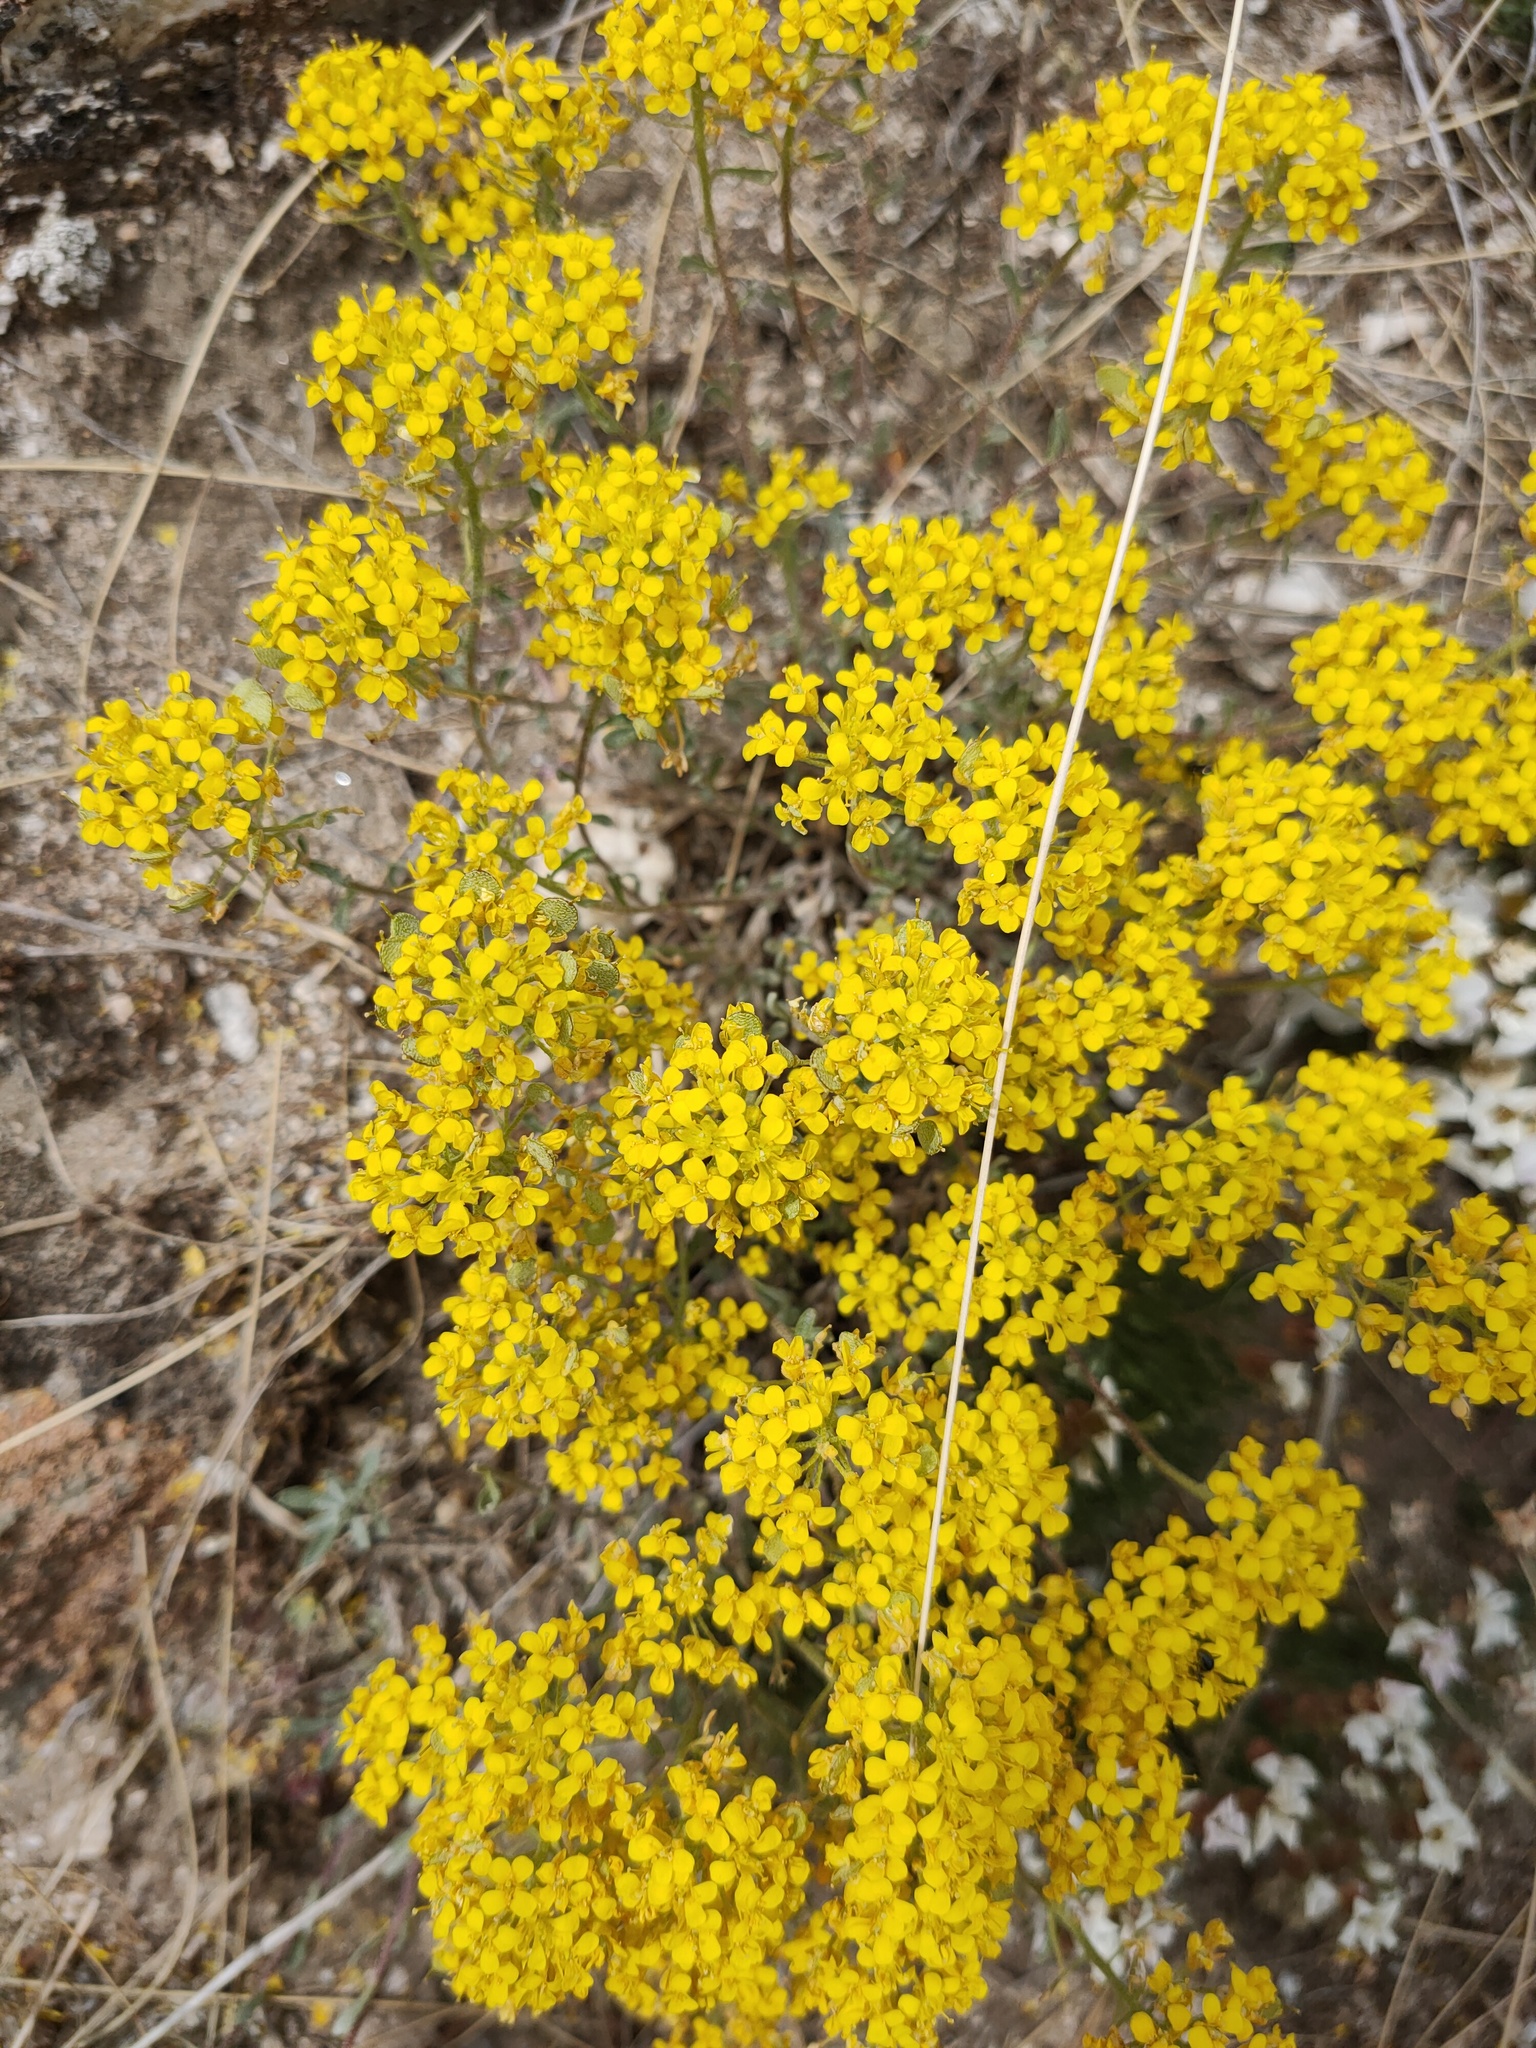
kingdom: Plantae
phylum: Tracheophyta
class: Magnoliopsida
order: Brassicales
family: Brassicaceae
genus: Odontarrhena
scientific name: Odontarrhena obovata
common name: American alyssum
